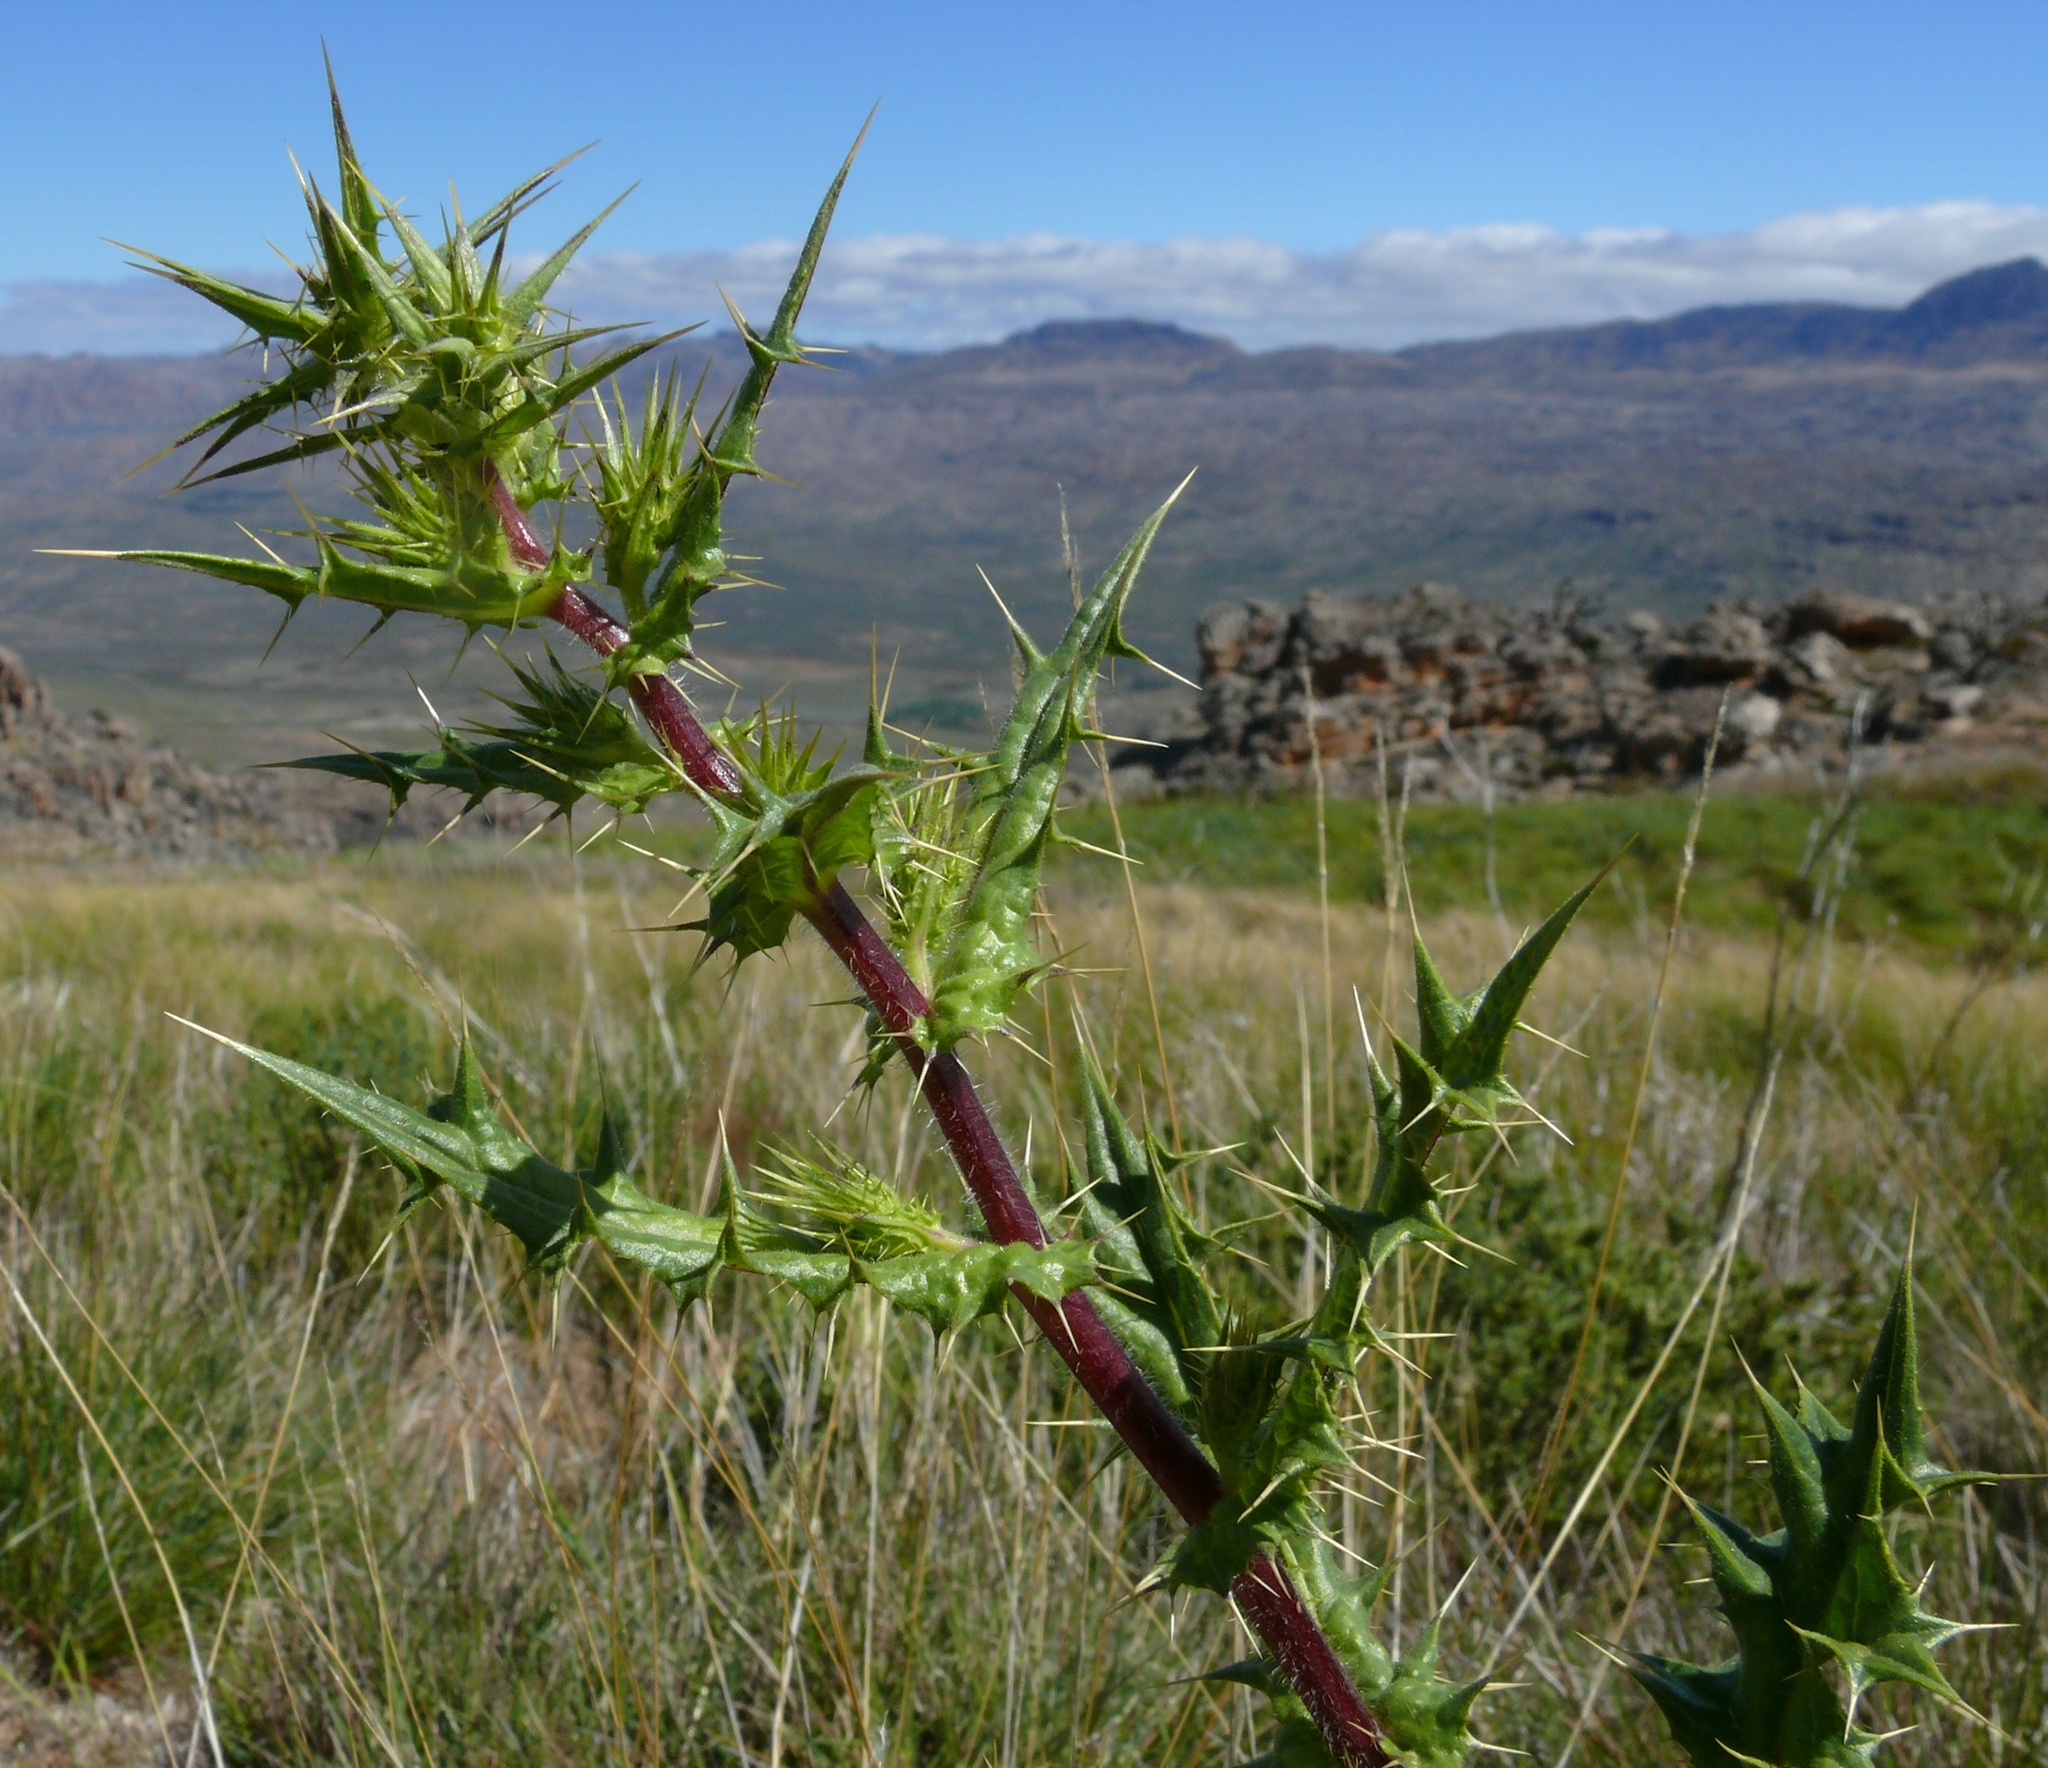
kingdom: Plantae
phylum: Tracheophyta
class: Magnoliopsida
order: Asterales
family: Asteraceae
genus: Berkheya
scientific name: Berkheya carlinifolia
